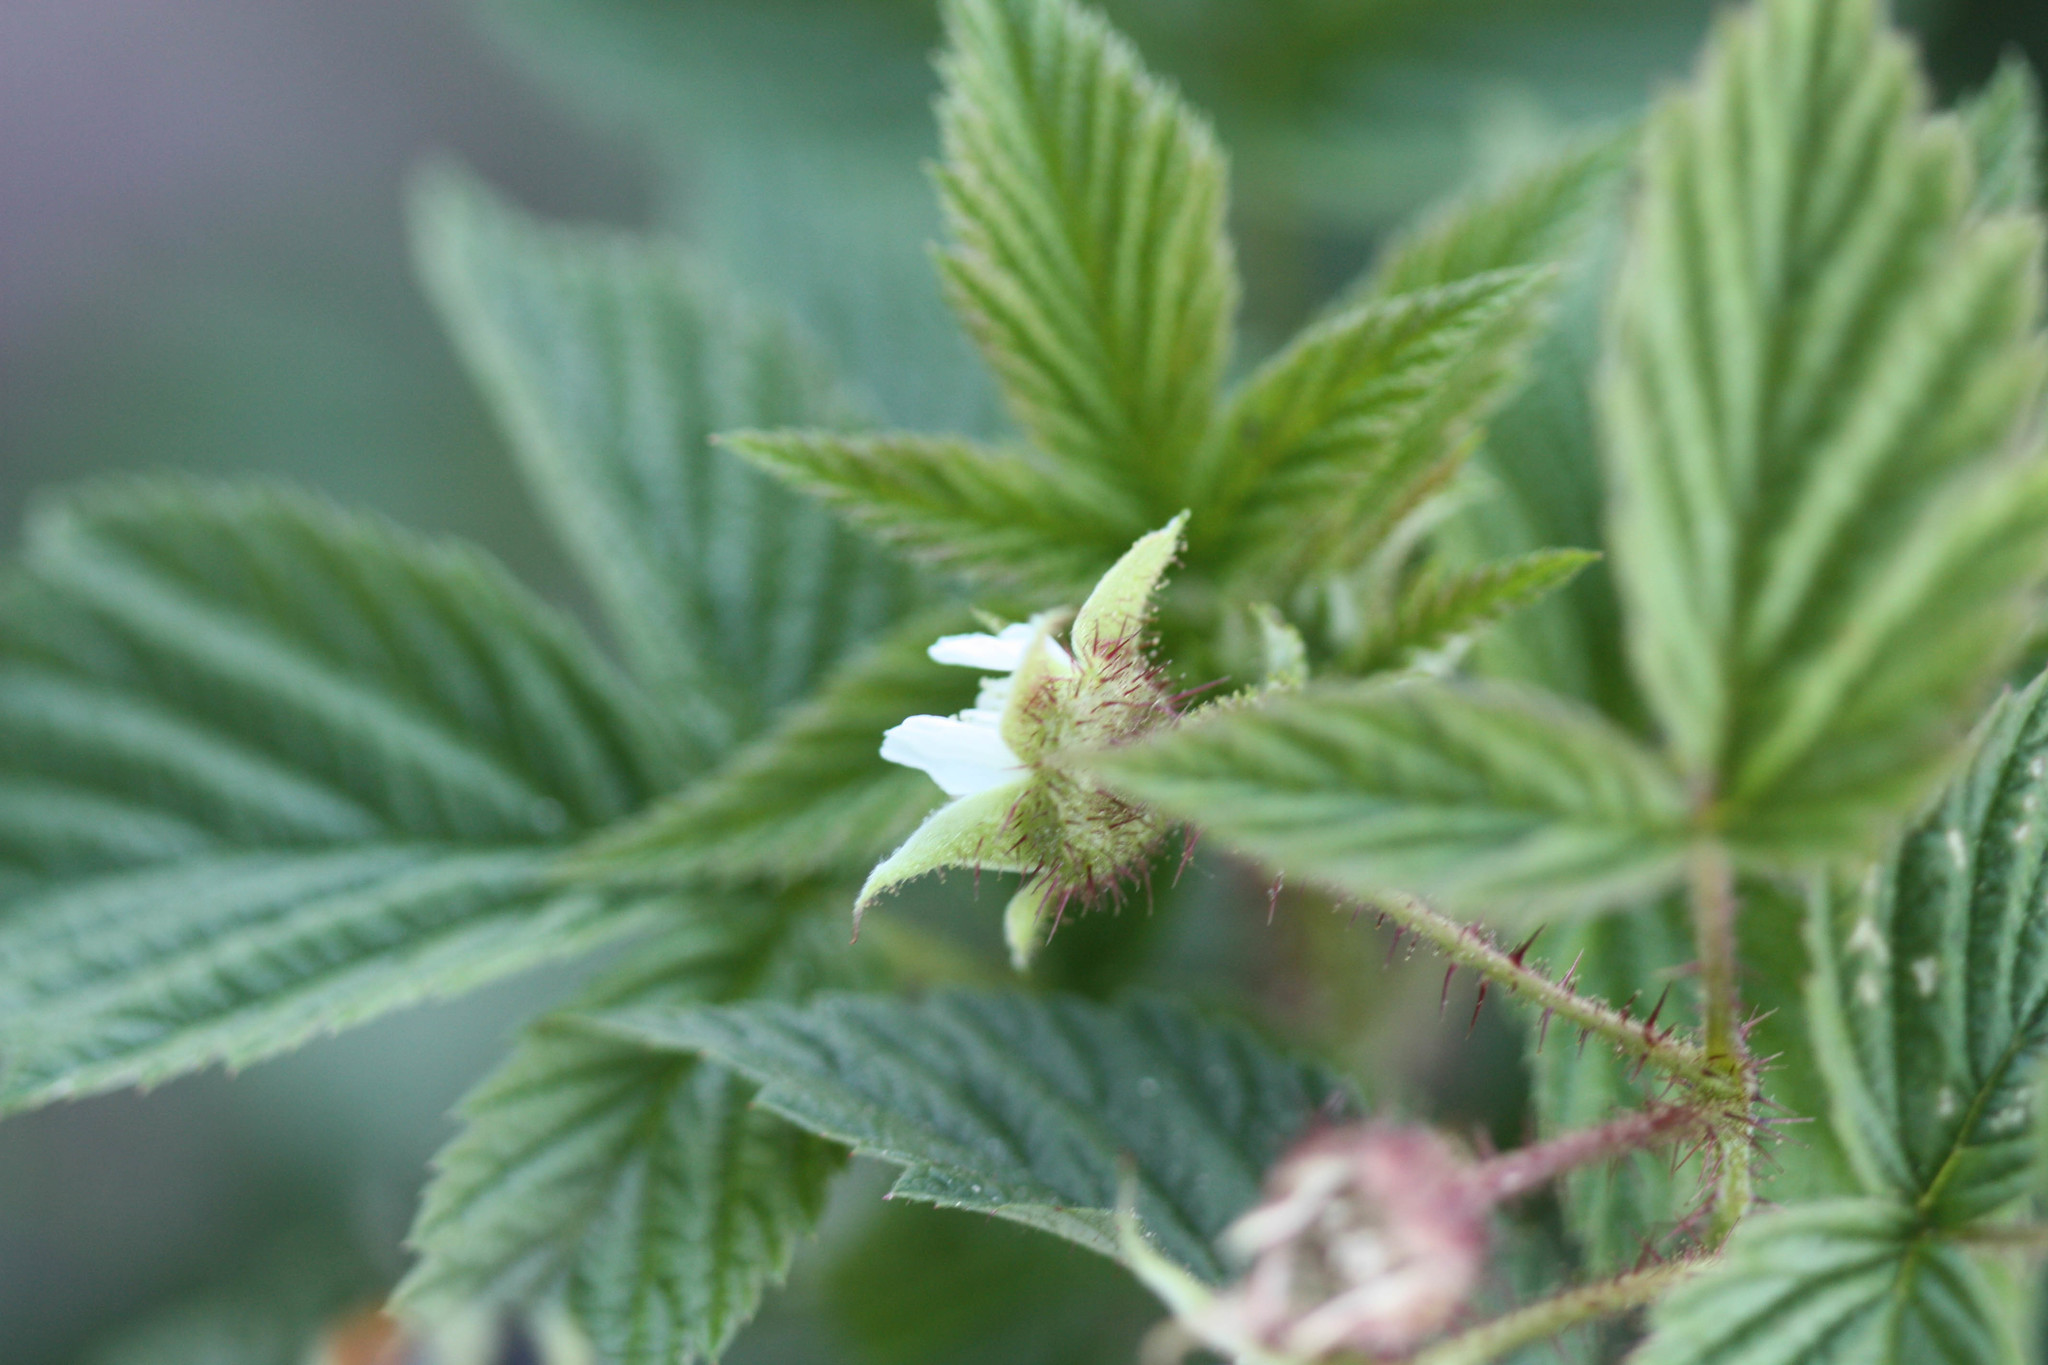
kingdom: Plantae
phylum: Tracheophyta
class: Magnoliopsida
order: Rosales
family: Rosaceae
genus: Rubus
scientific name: Rubus idaeus
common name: Raspberry
